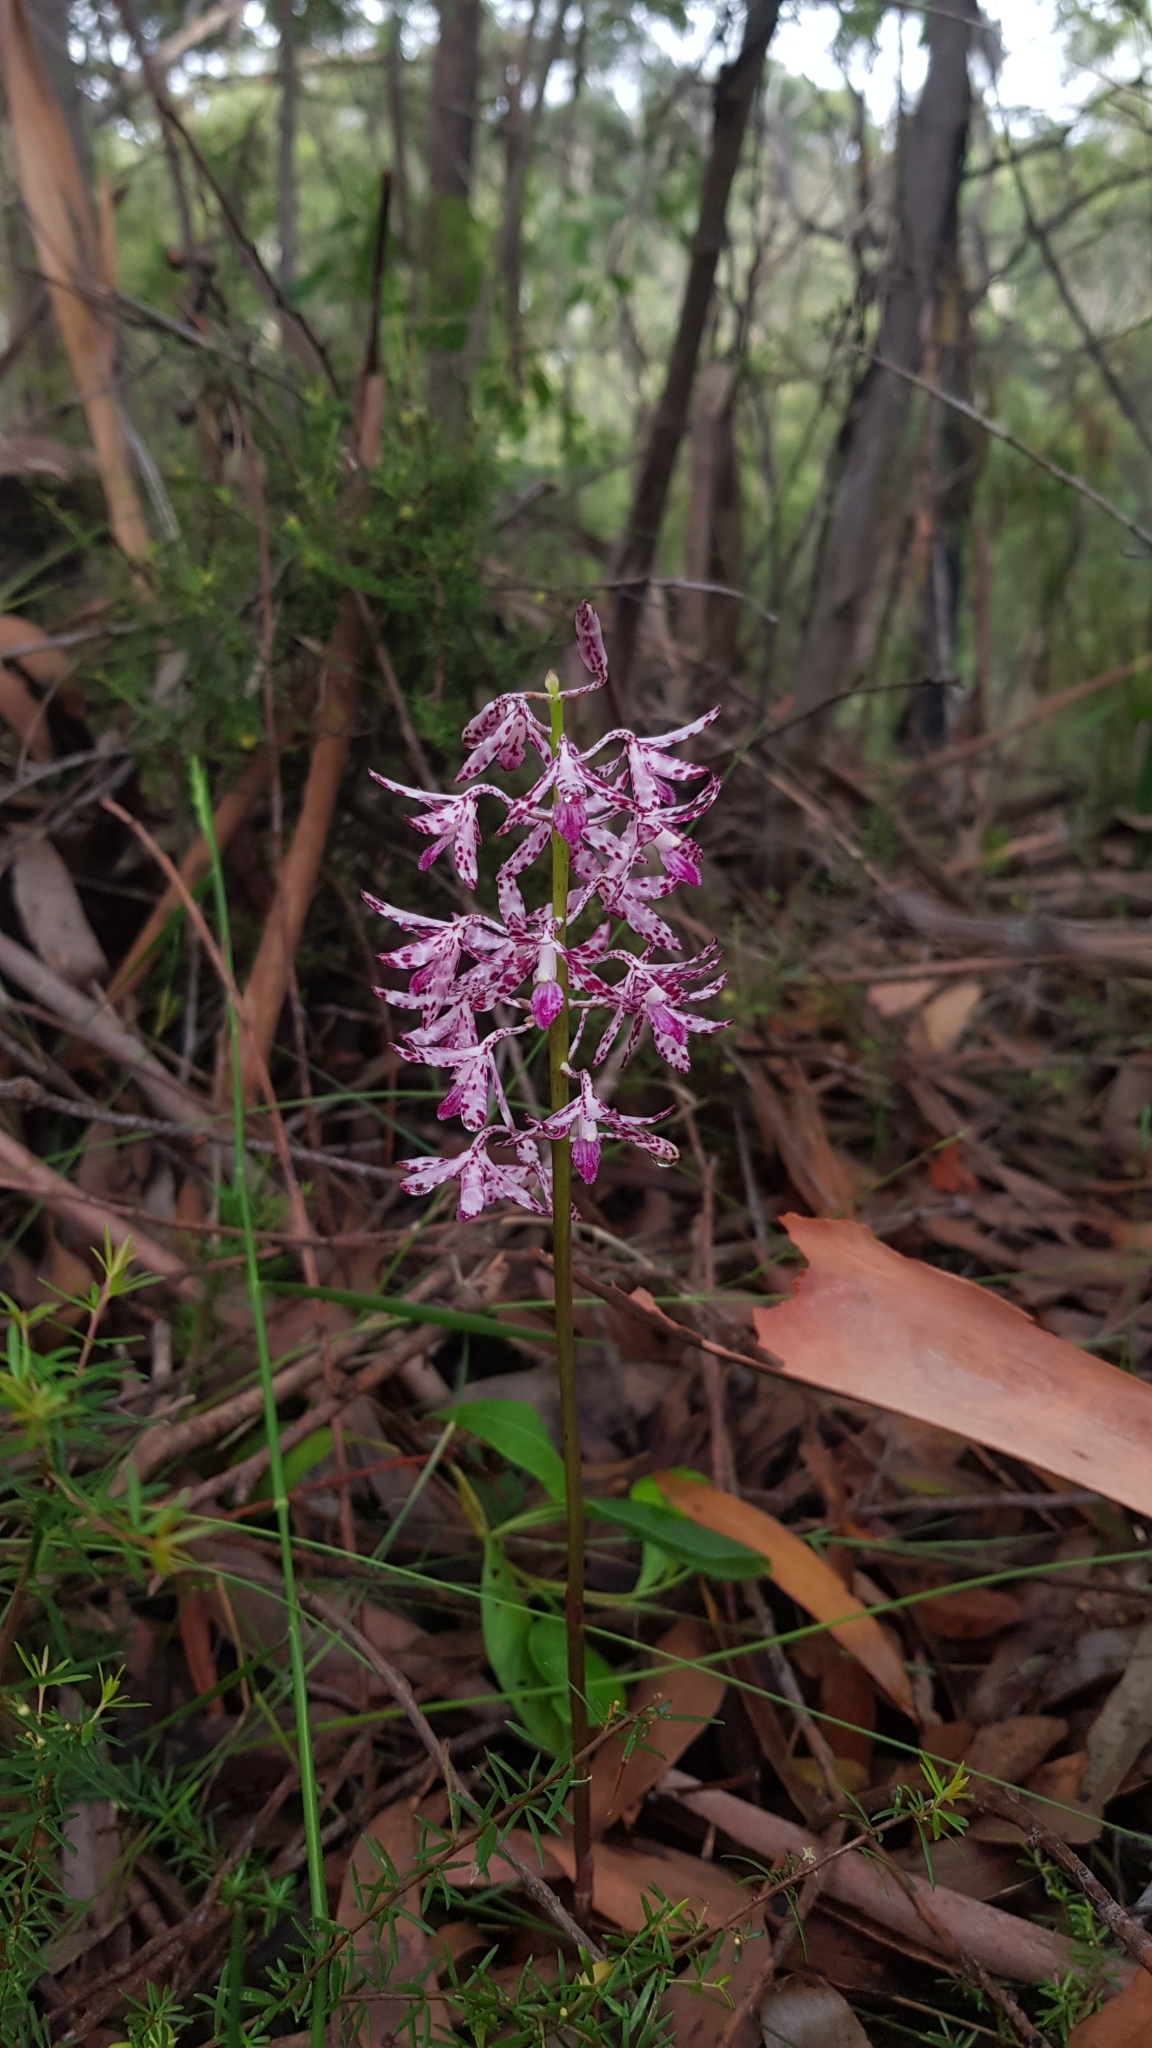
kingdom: Plantae
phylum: Tracheophyta
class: Liliopsida
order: Asparagales
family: Orchidaceae
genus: Dipodium
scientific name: Dipodium variegatum
